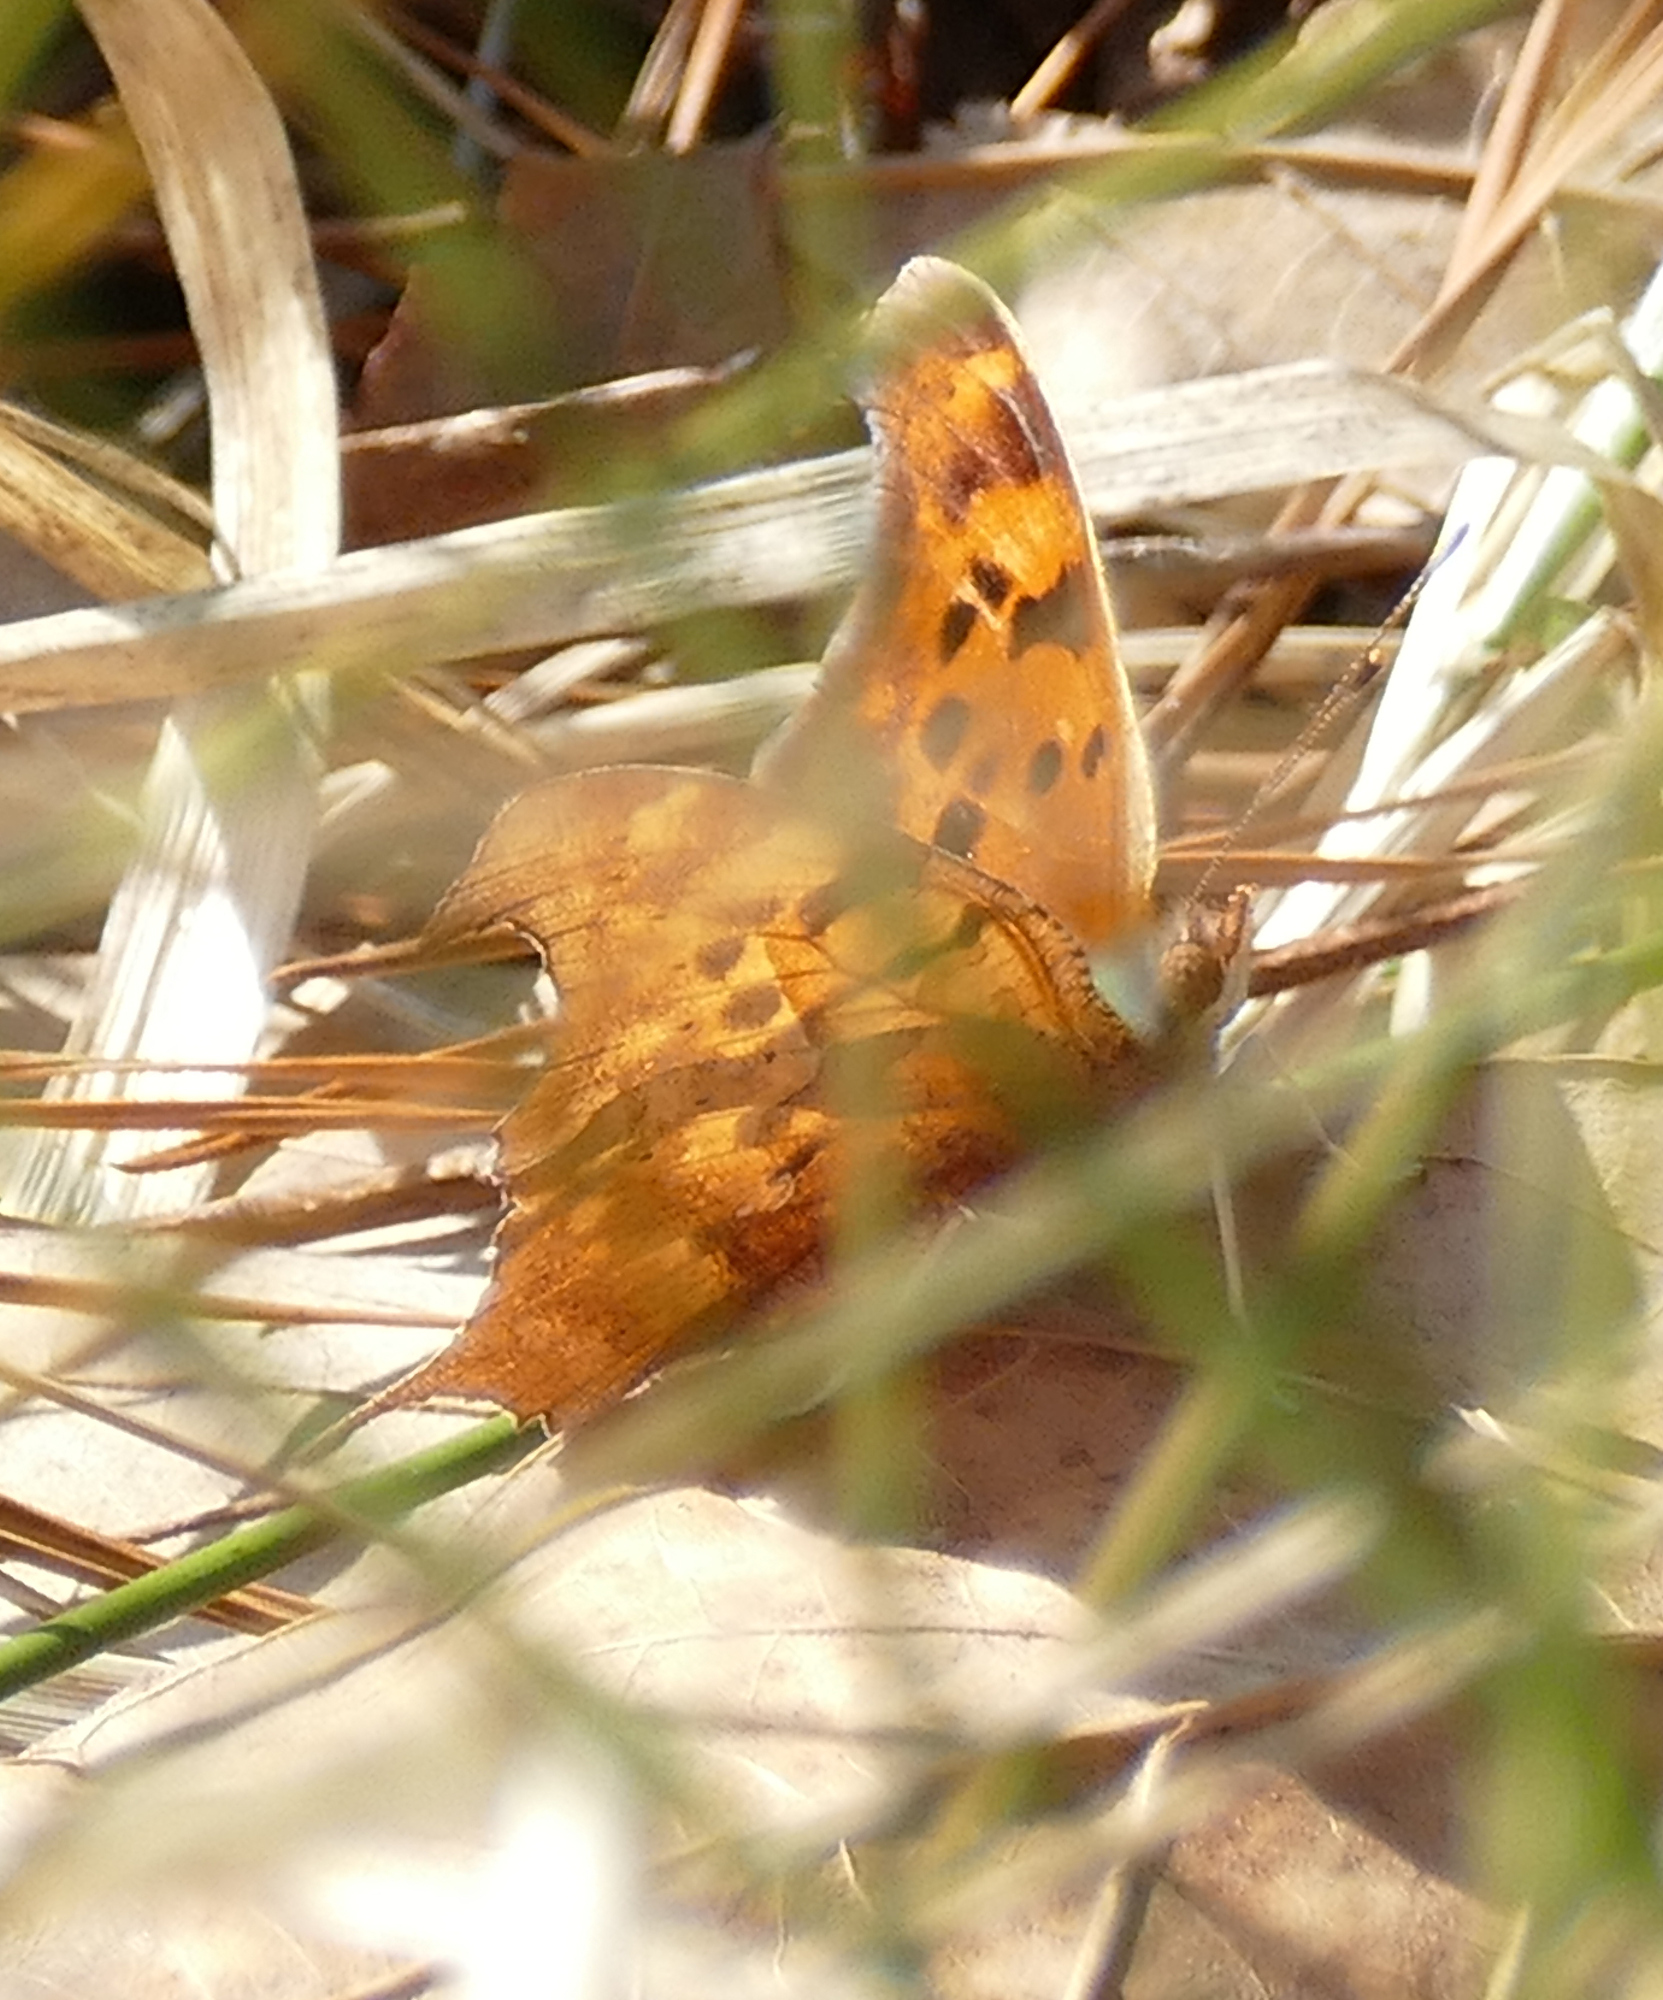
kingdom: Animalia
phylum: Arthropoda
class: Insecta
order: Lepidoptera
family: Nymphalidae
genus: Polygonia
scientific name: Polygonia interrogationis
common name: Question mark
